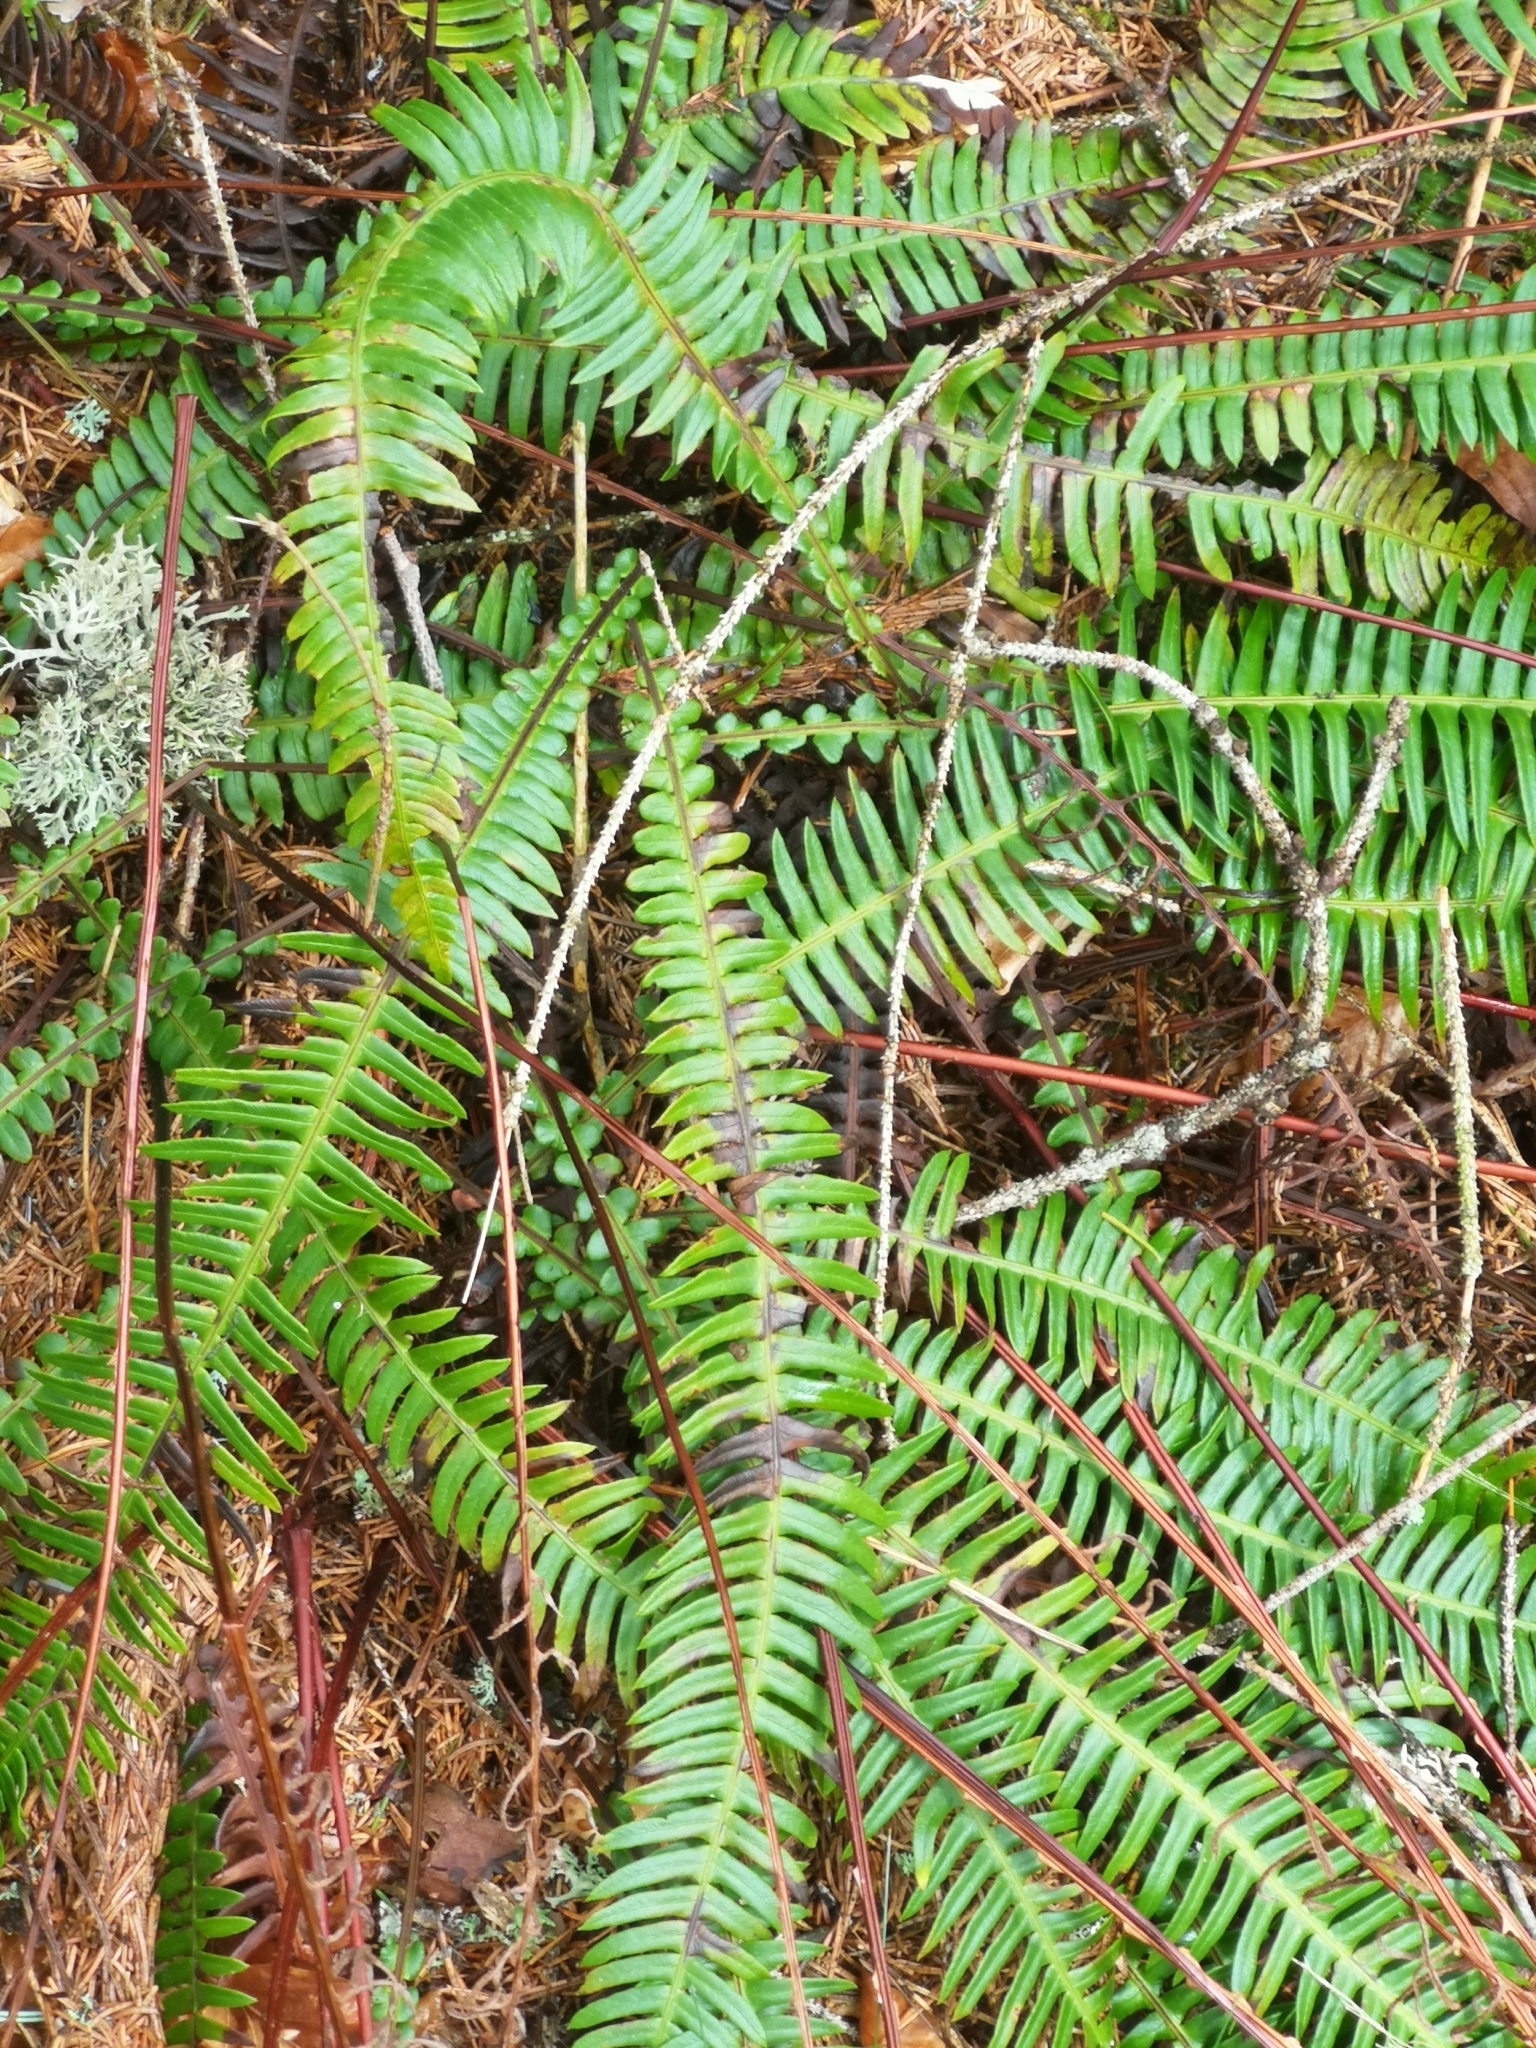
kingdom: Plantae
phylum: Tracheophyta
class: Polypodiopsida
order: Polypodiales
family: Blechnaceae
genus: Struthiopteris
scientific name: Struthiopteris spicant
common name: Deer fern
